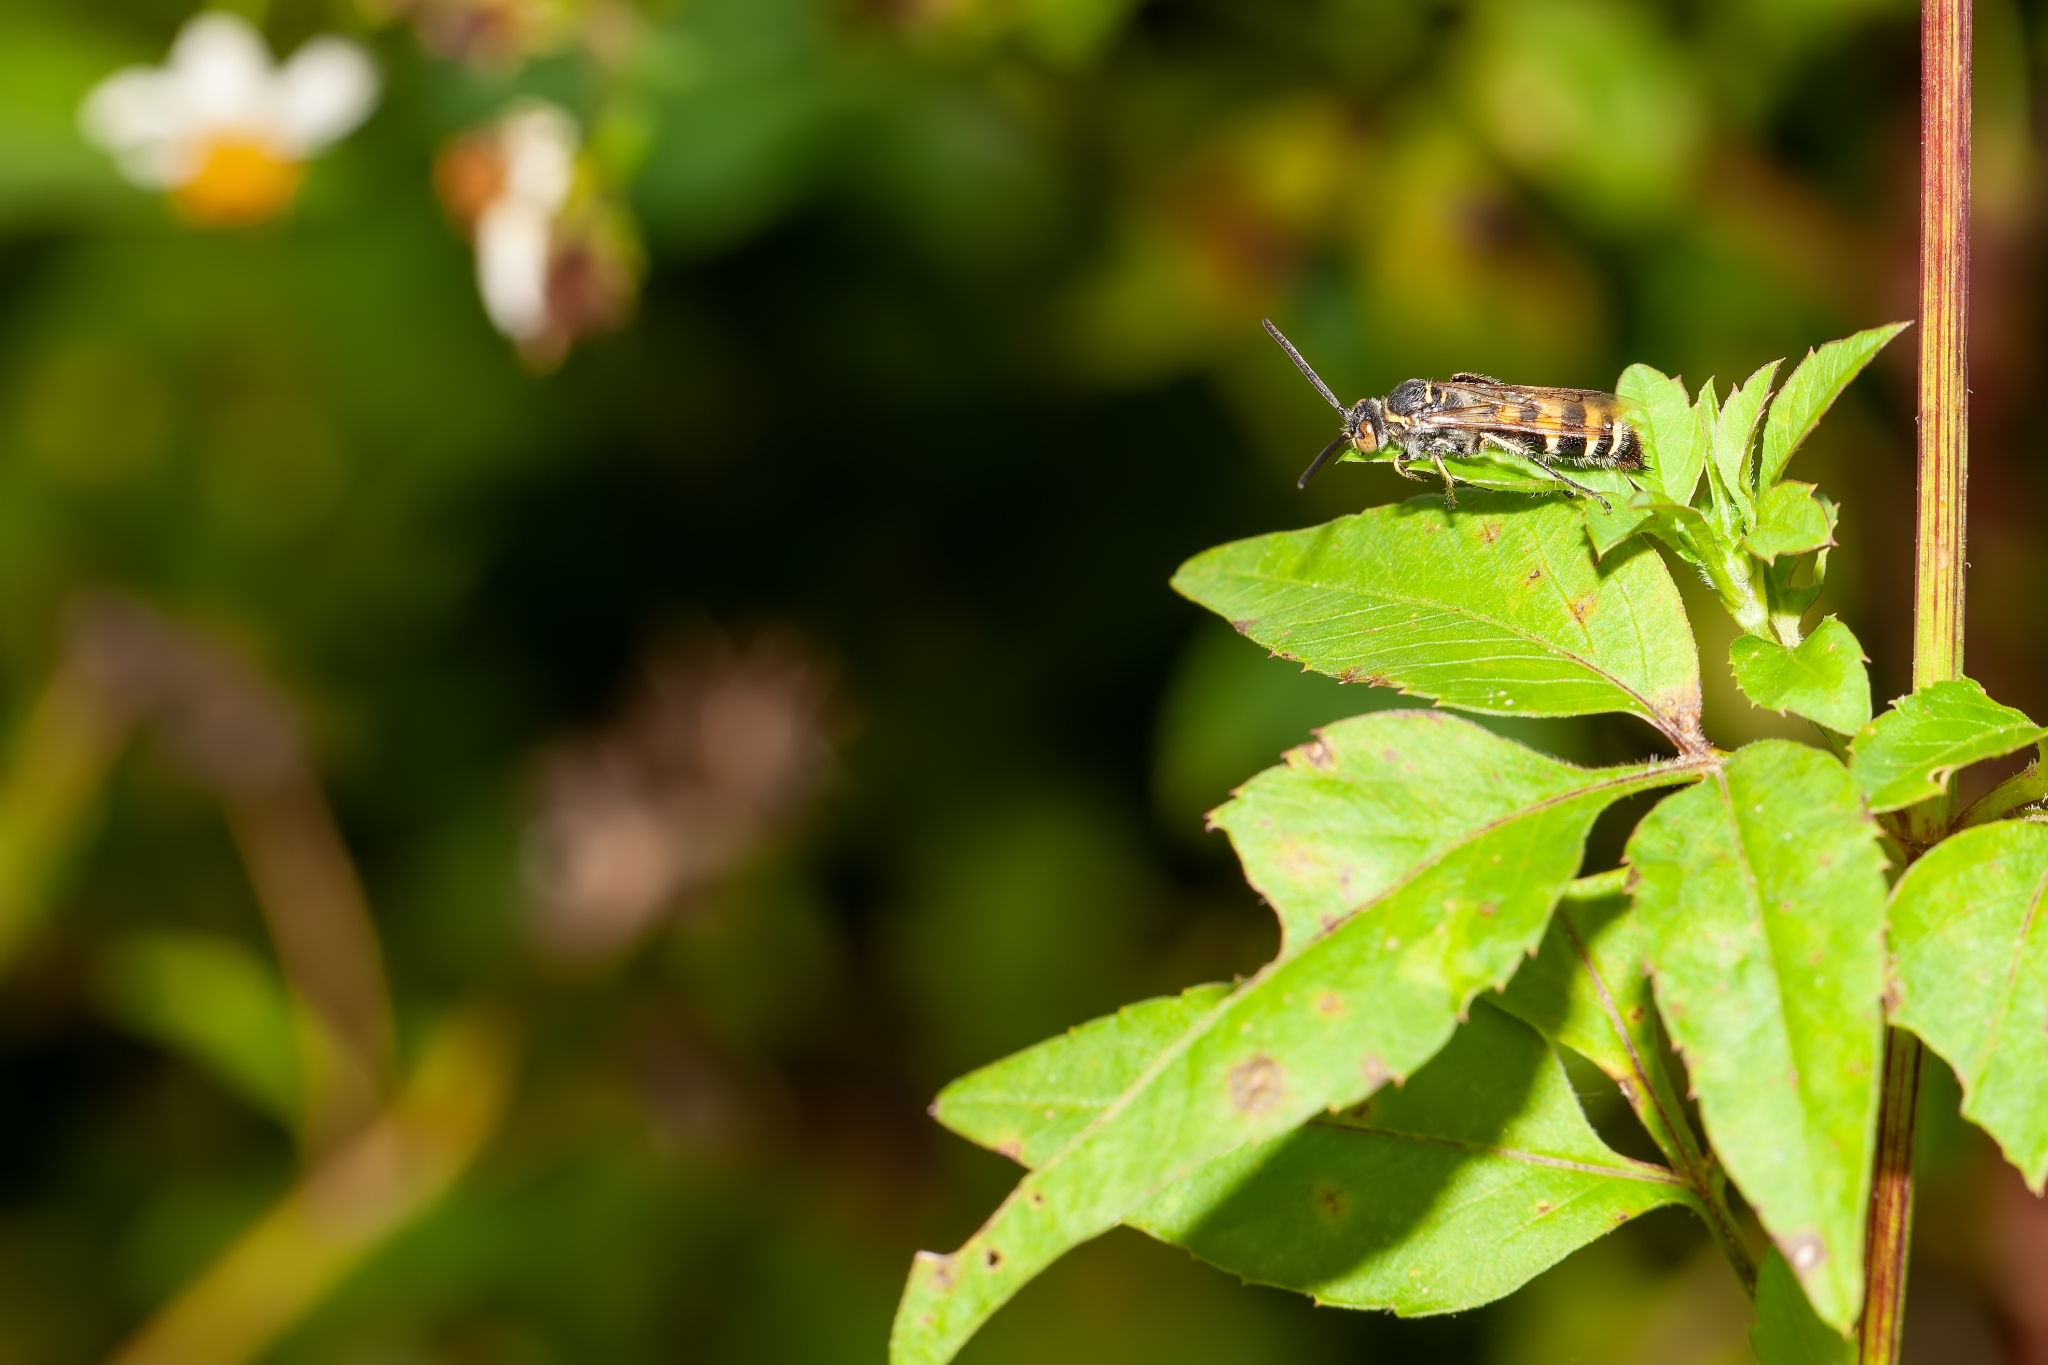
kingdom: Animalia
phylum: Arthropoda
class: Insecta
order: Hymenoptera
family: Scoliidae
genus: Dielis
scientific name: Dielis
